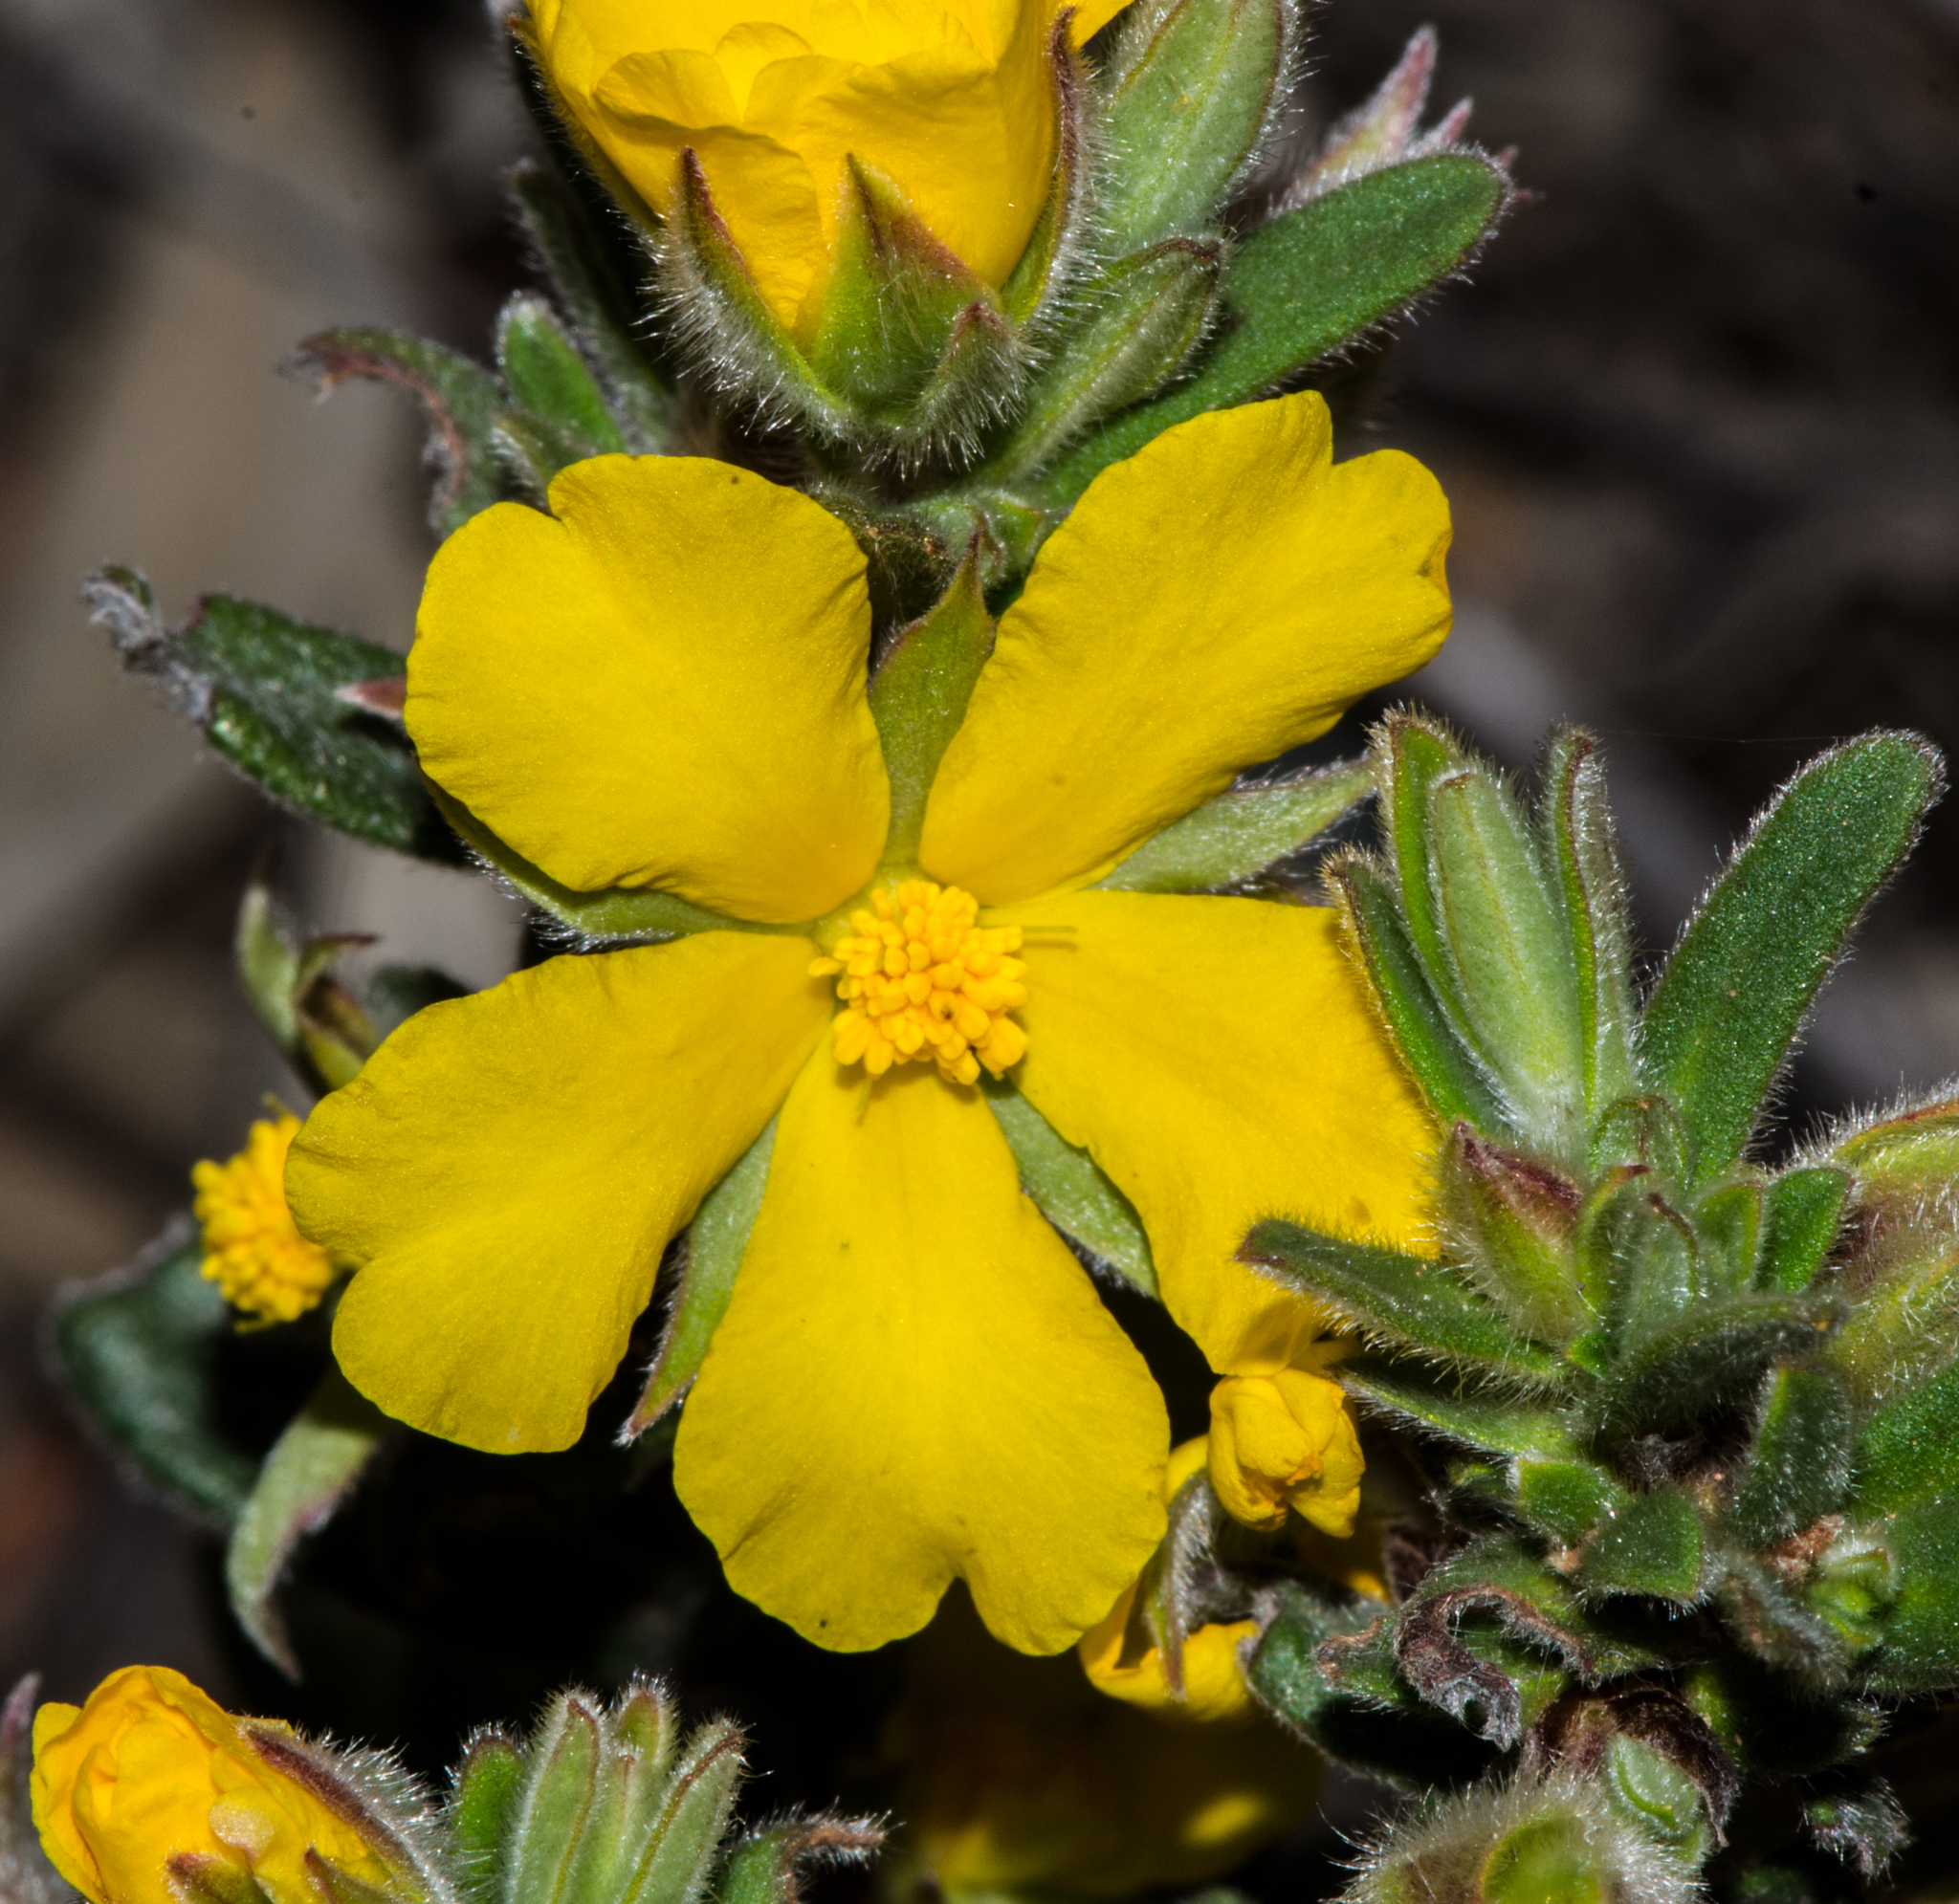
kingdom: Plantae
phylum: Tracheophyta
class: Magnoliopsida
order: Dilleniales
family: Dilleniaceae
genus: Hibbertia
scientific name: Hibbertia montana
